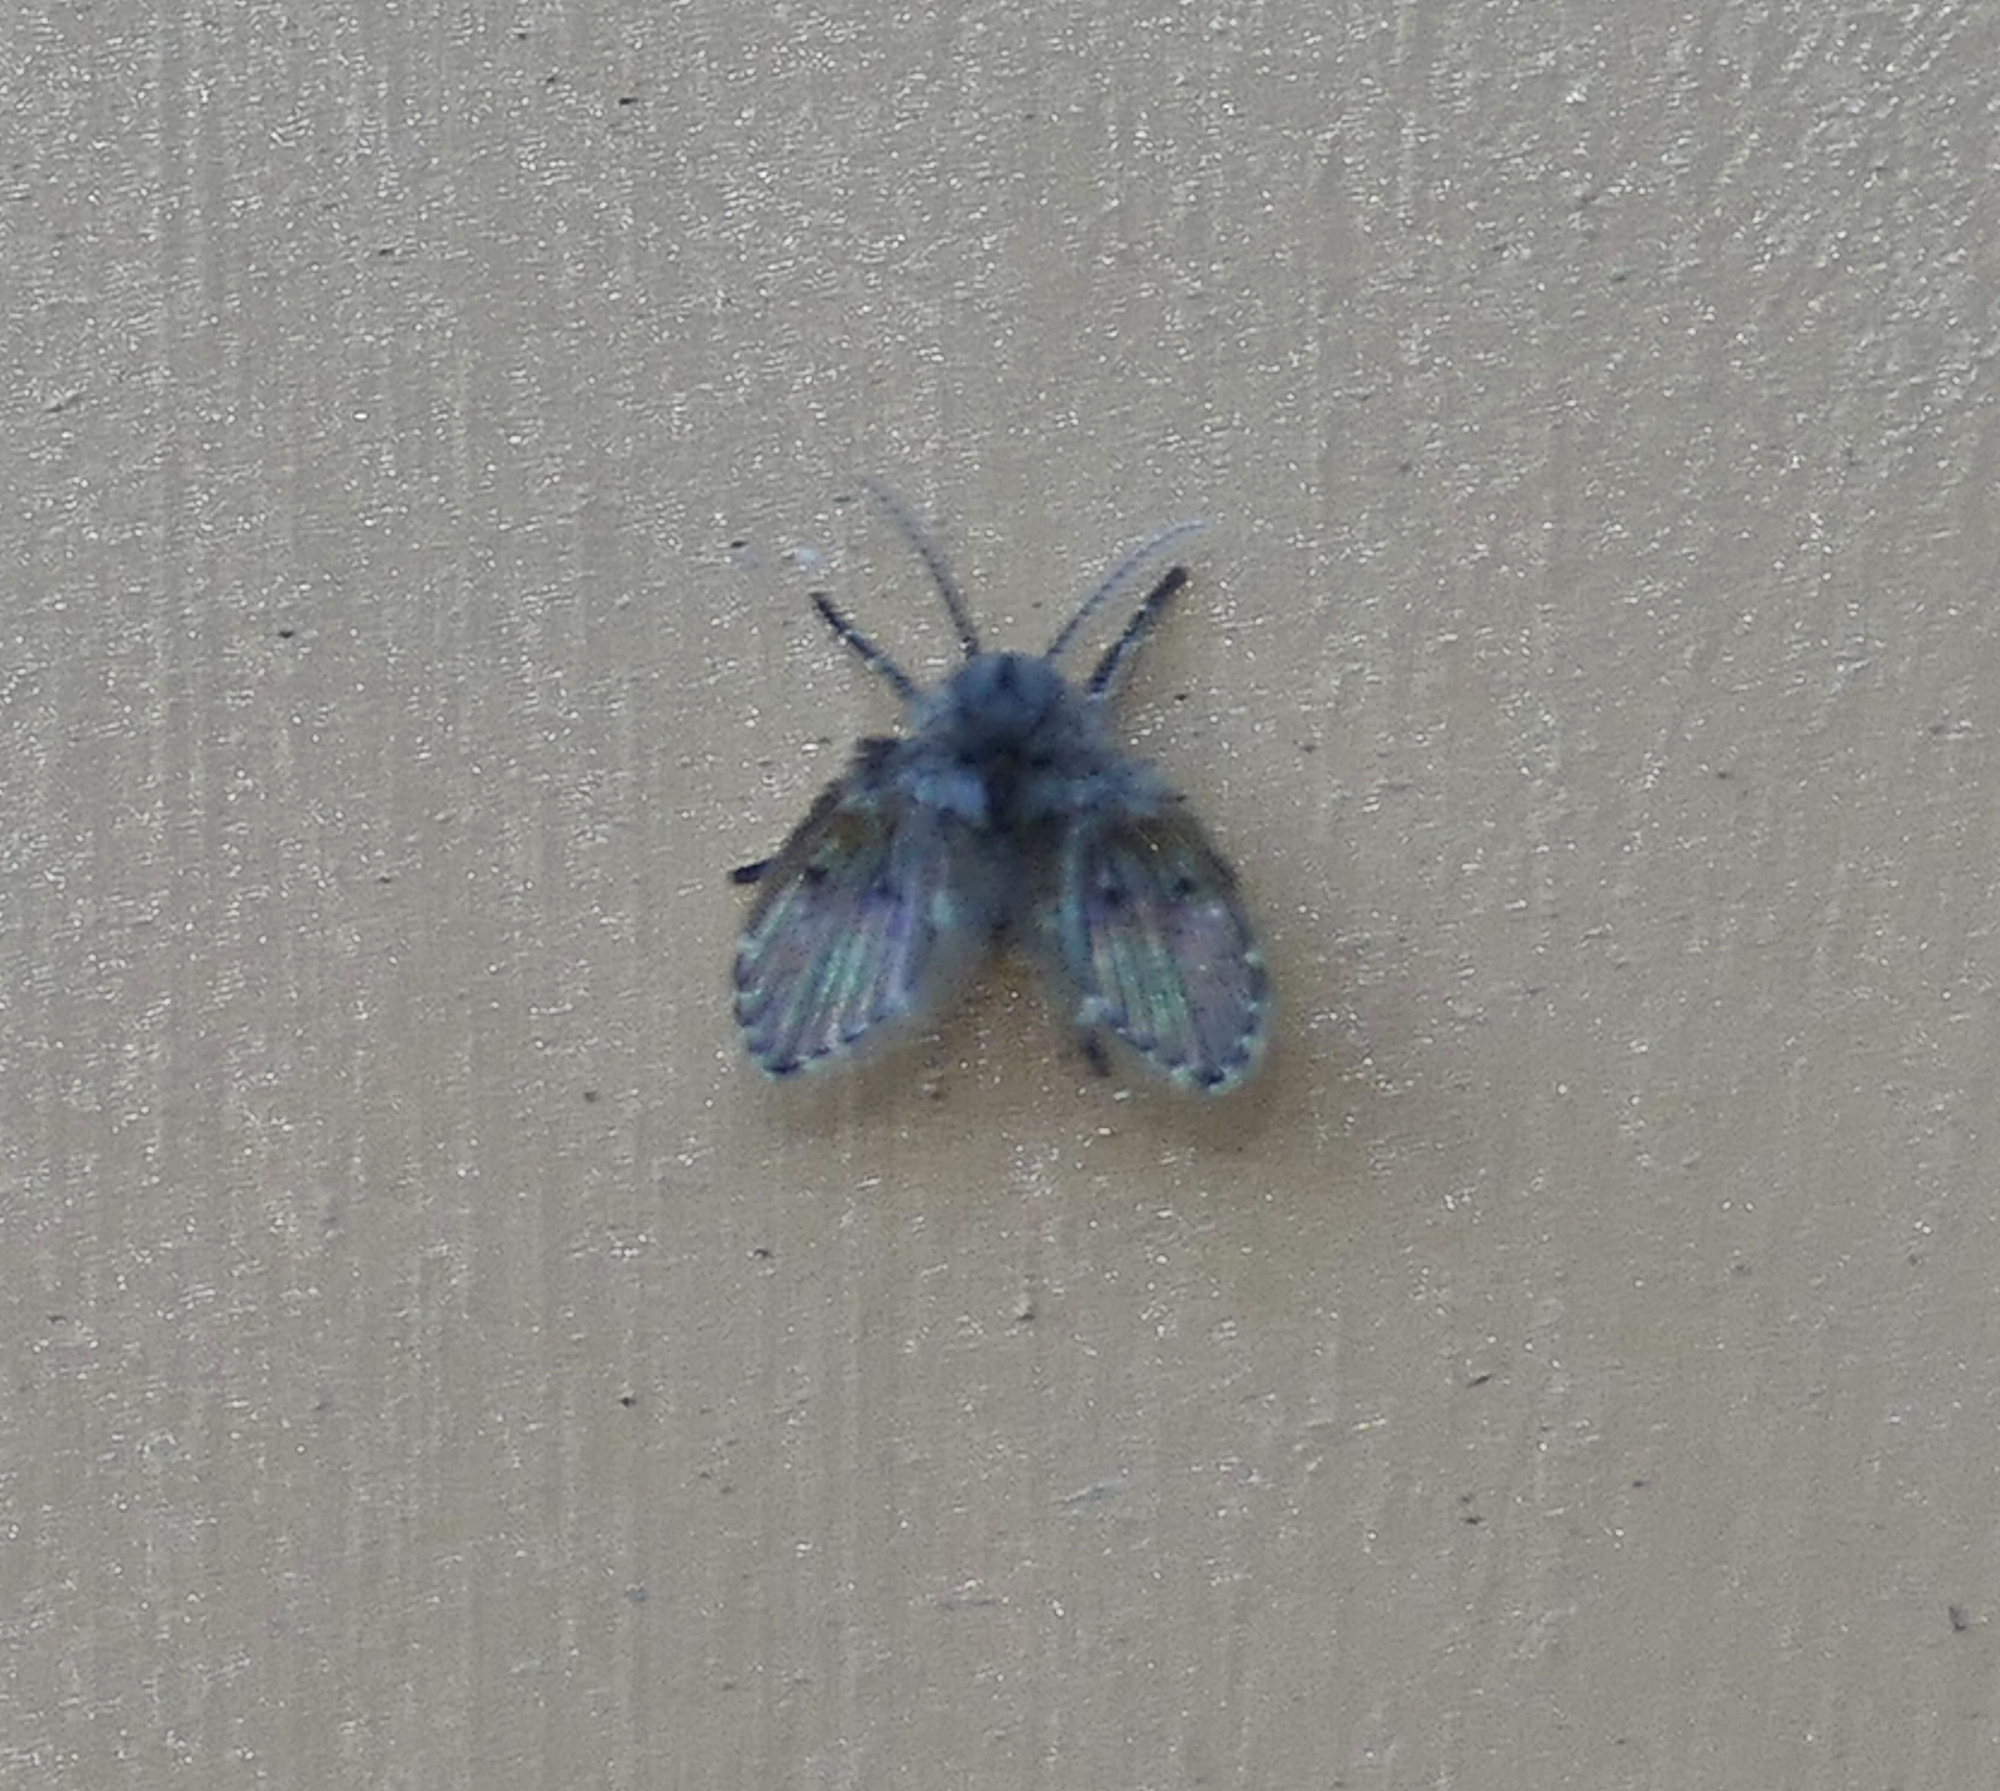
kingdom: Animalia
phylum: Arthropoda
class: Insecta
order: Diptera
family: Psychodidae
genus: Clogmia
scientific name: Clogmia albipunctatus
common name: White-spotted moth fly
